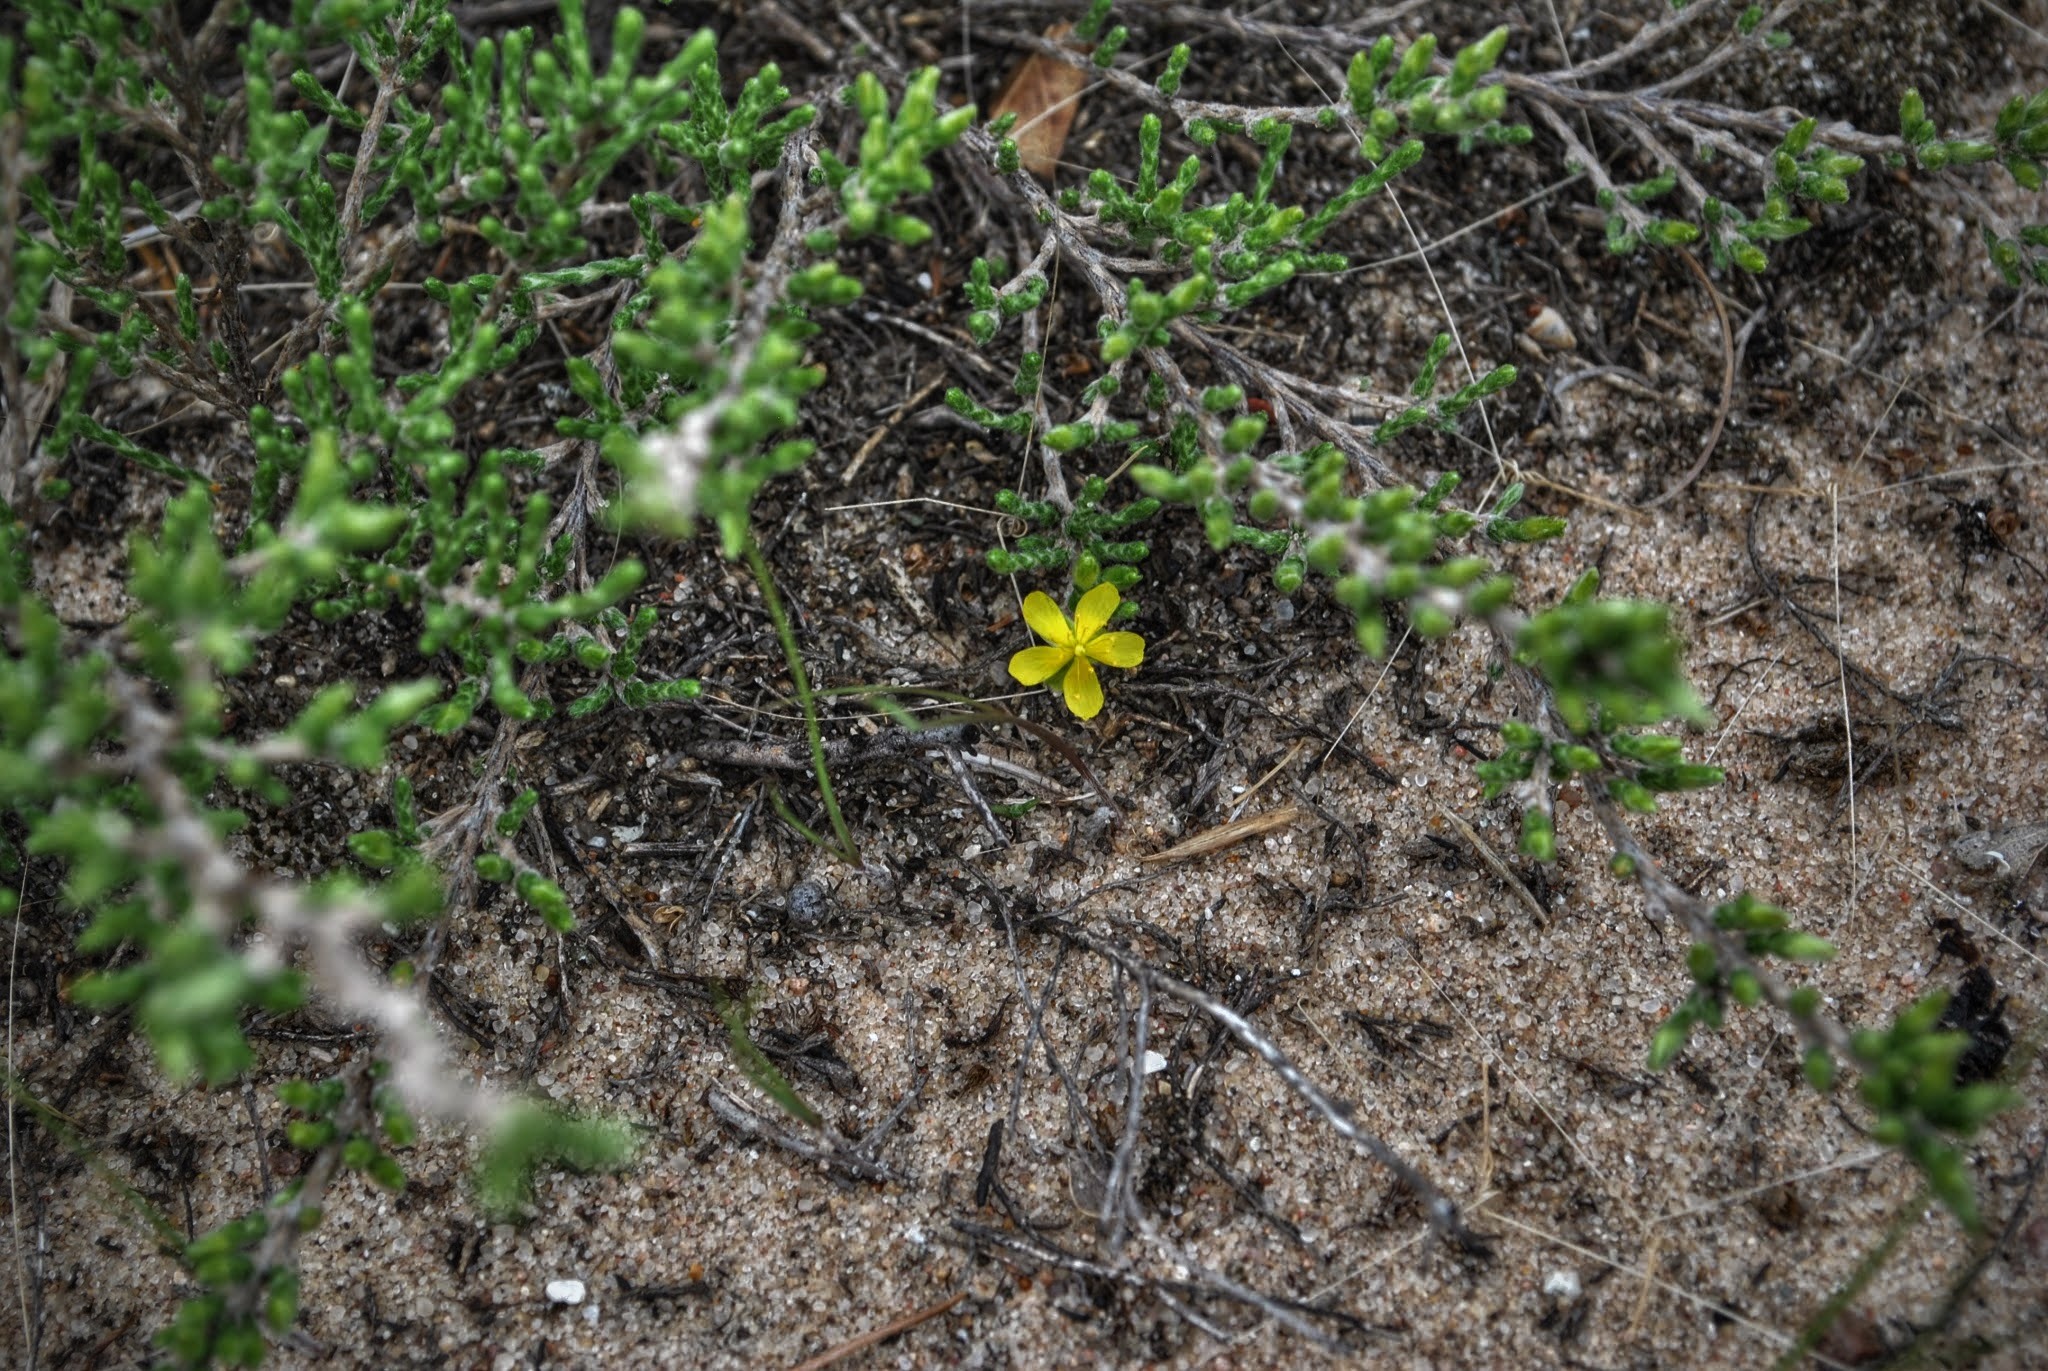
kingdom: Plantae
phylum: Tracheophyta
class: Magnoliopsida
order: Malvales
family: Cistaceae
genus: Hudsonia
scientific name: Hudsonia tomentosa
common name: Beach-heath
